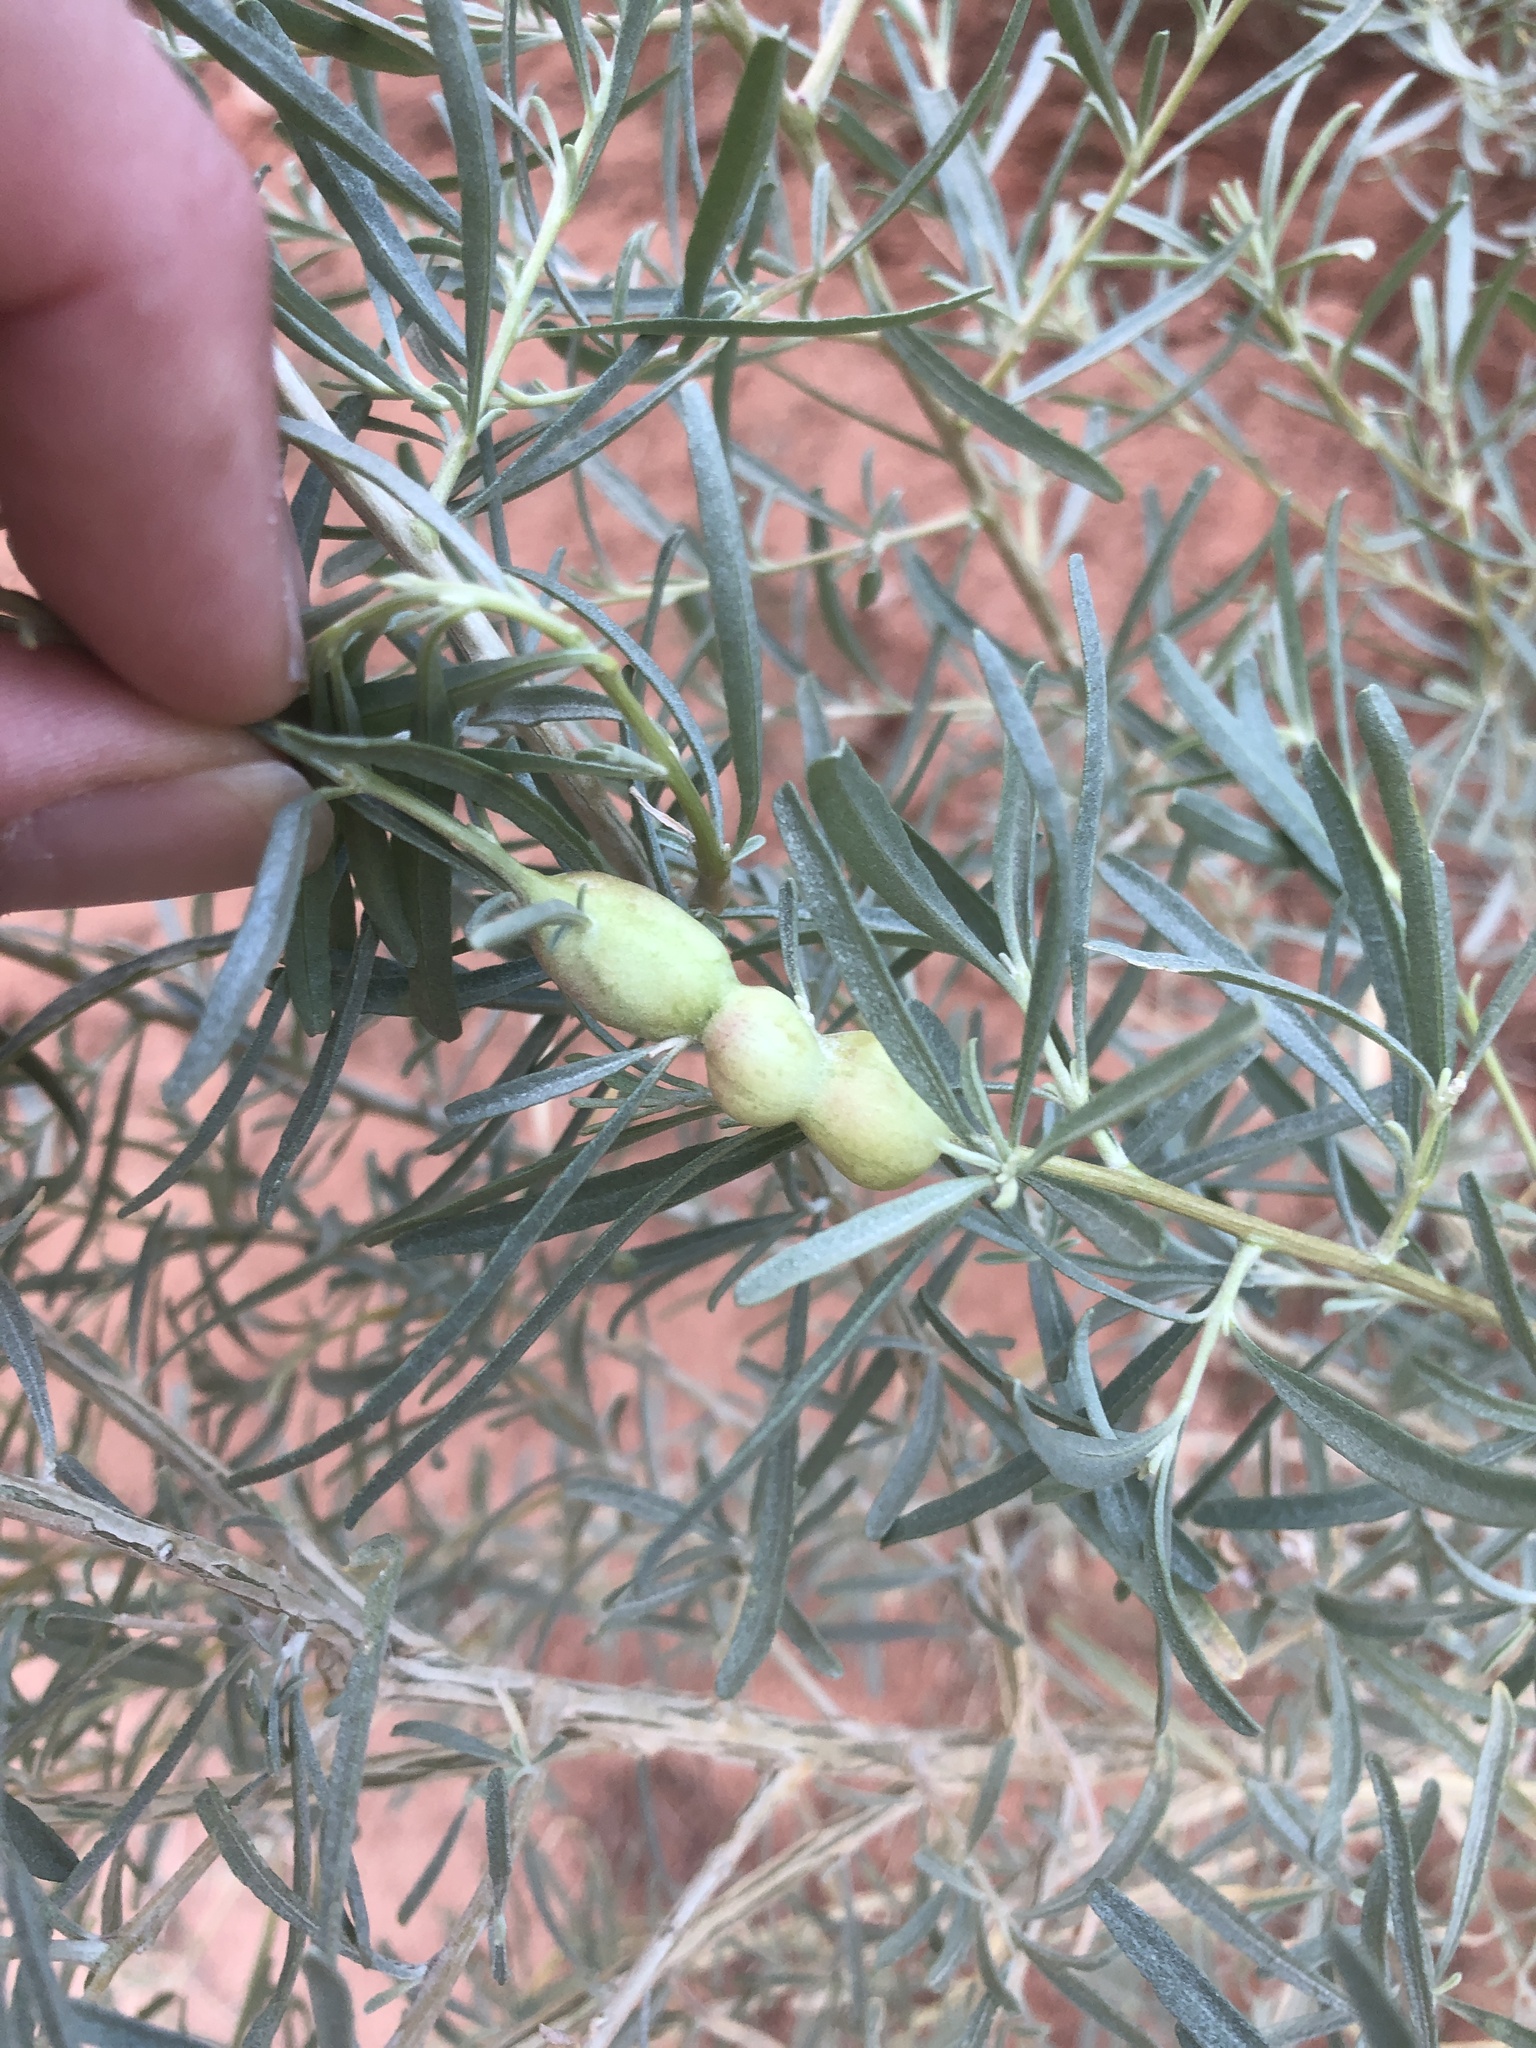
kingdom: Animalia
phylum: Arthropoda
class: Insecta
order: Diptera
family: Cecidomyiidae
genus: Asphondylia
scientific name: Asphondylia atriplicis
